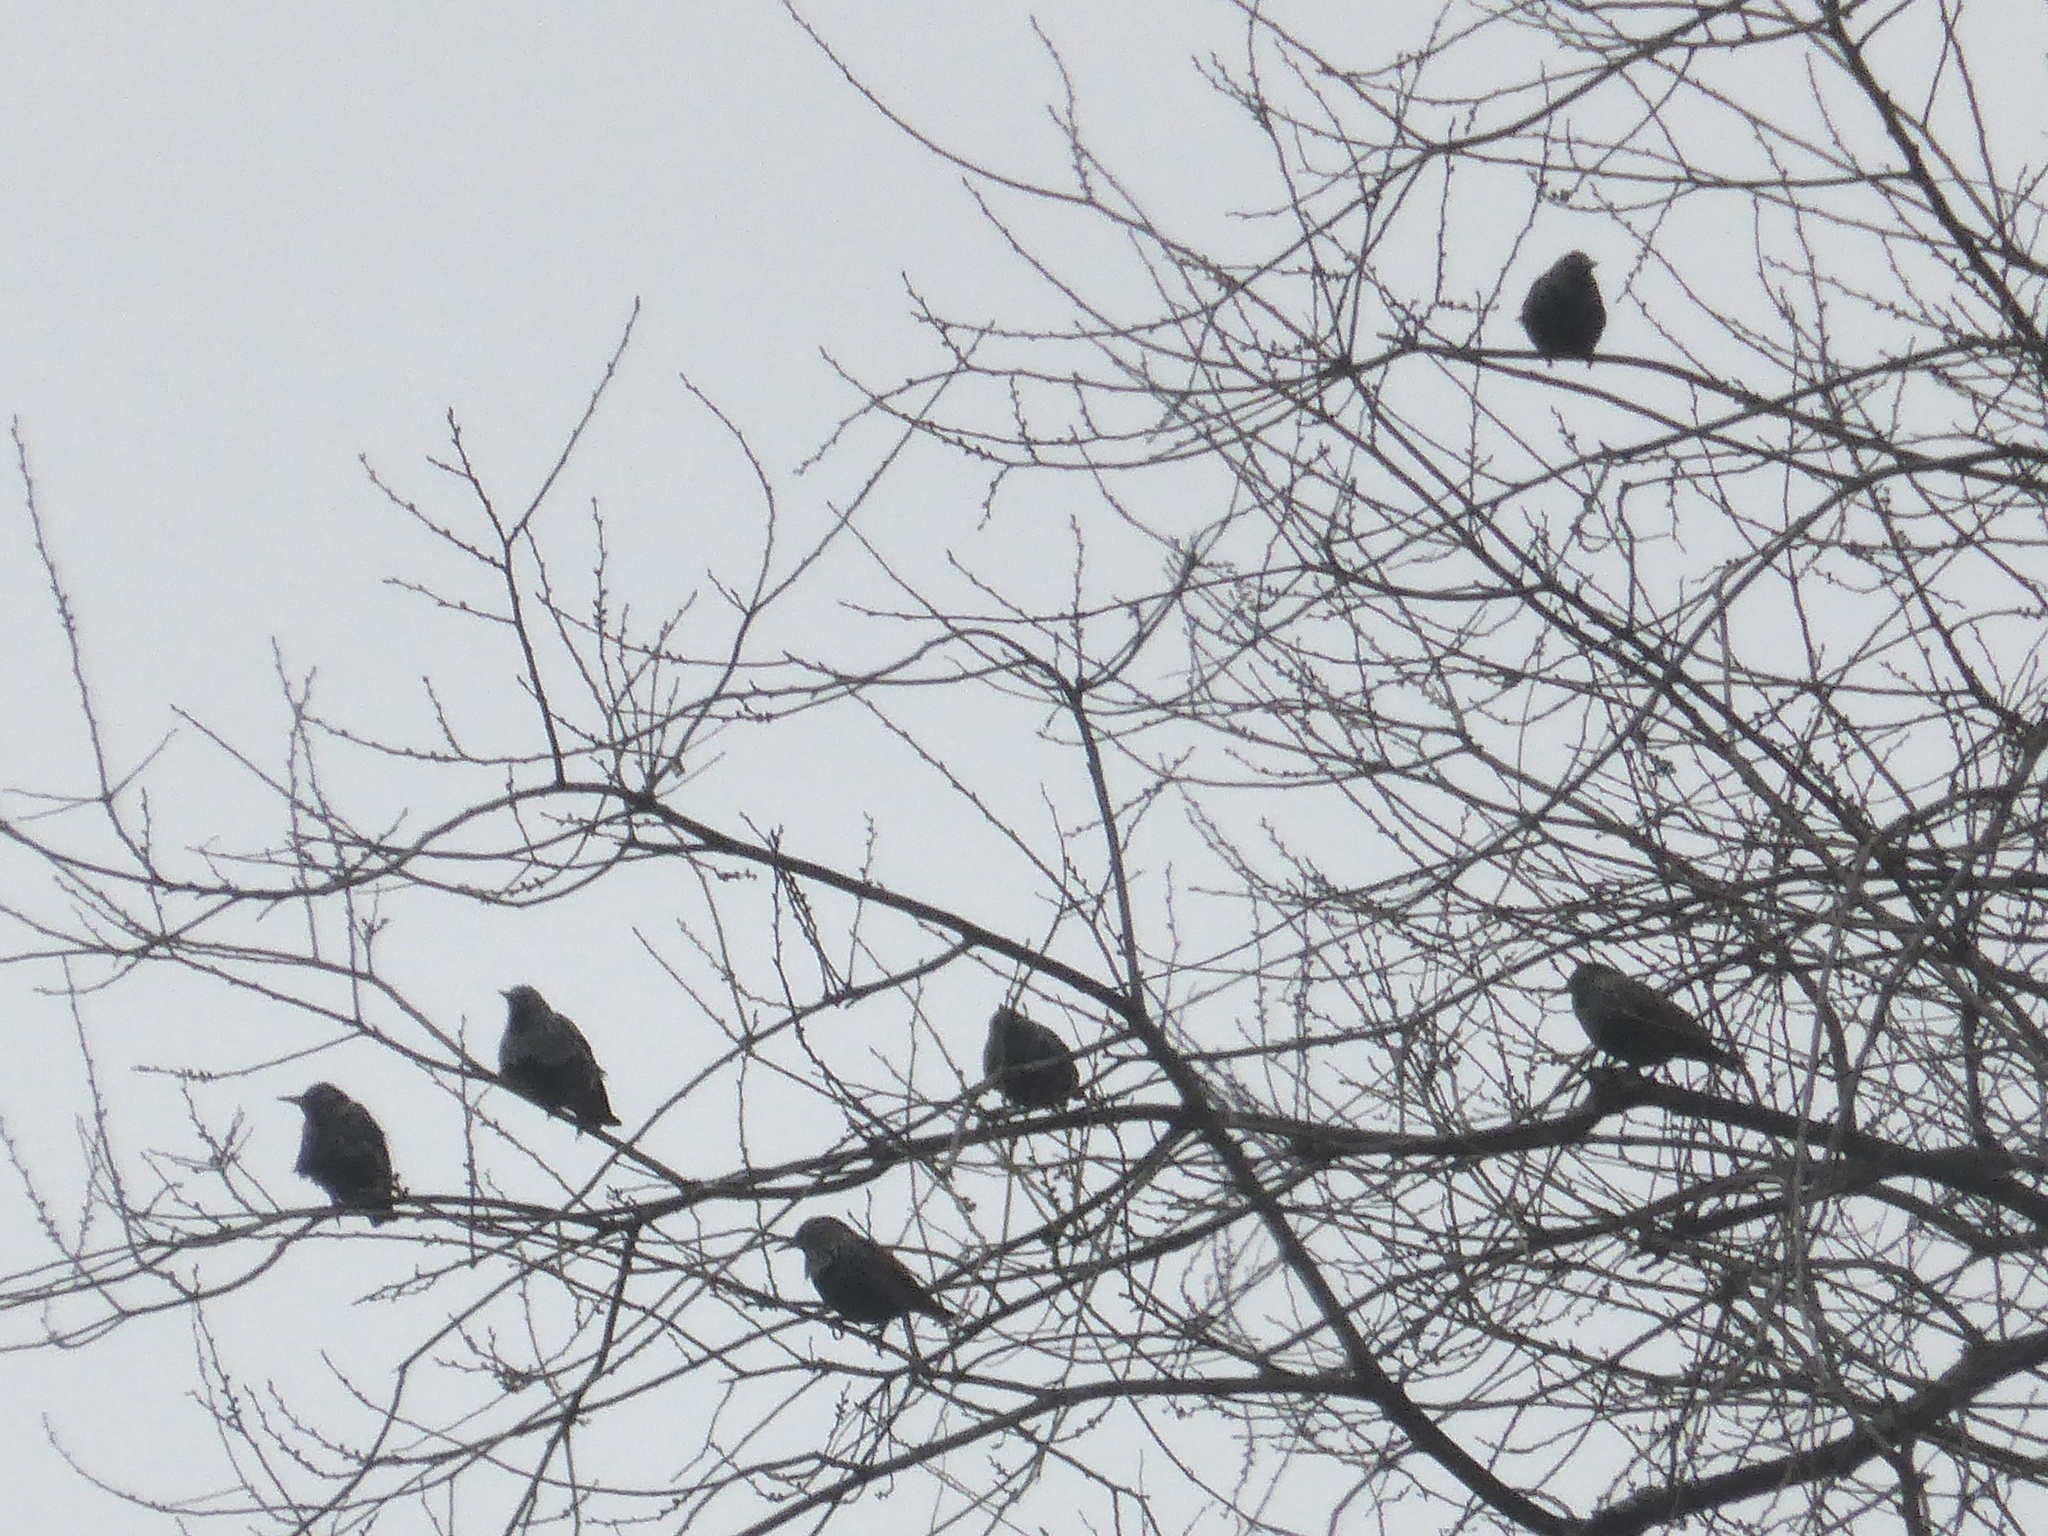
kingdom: Animalia
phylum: Chordata
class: Aves
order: Passeriformes
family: Sturnidae
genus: Sturnus
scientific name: Sturnus vulgaris
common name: Common starling
